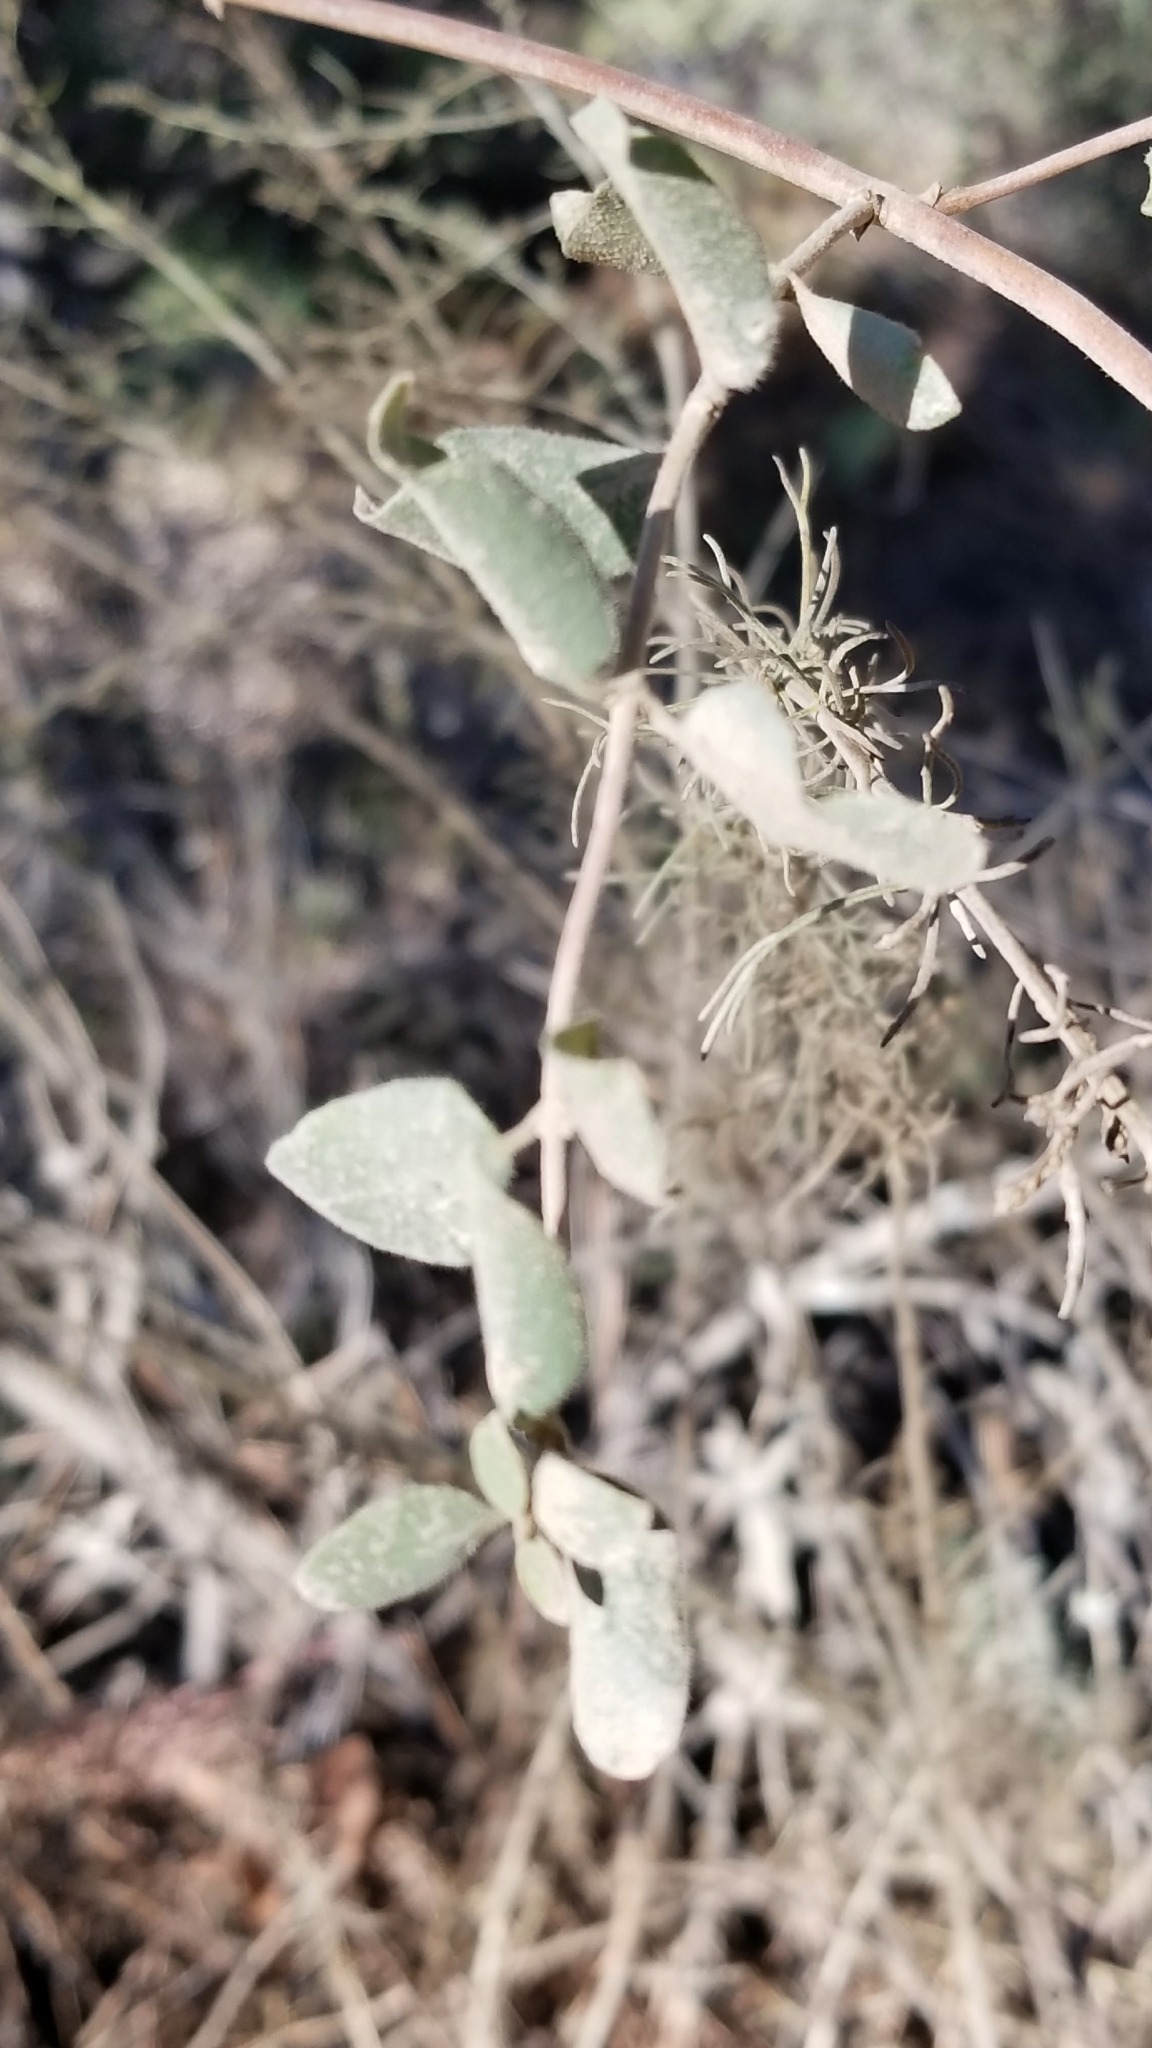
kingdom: Plantae
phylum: Tracheophyta
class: Magnoliopsida
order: Dipsacales
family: Caprifoliaceae
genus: Lonicera
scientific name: Lonicera subspicata
